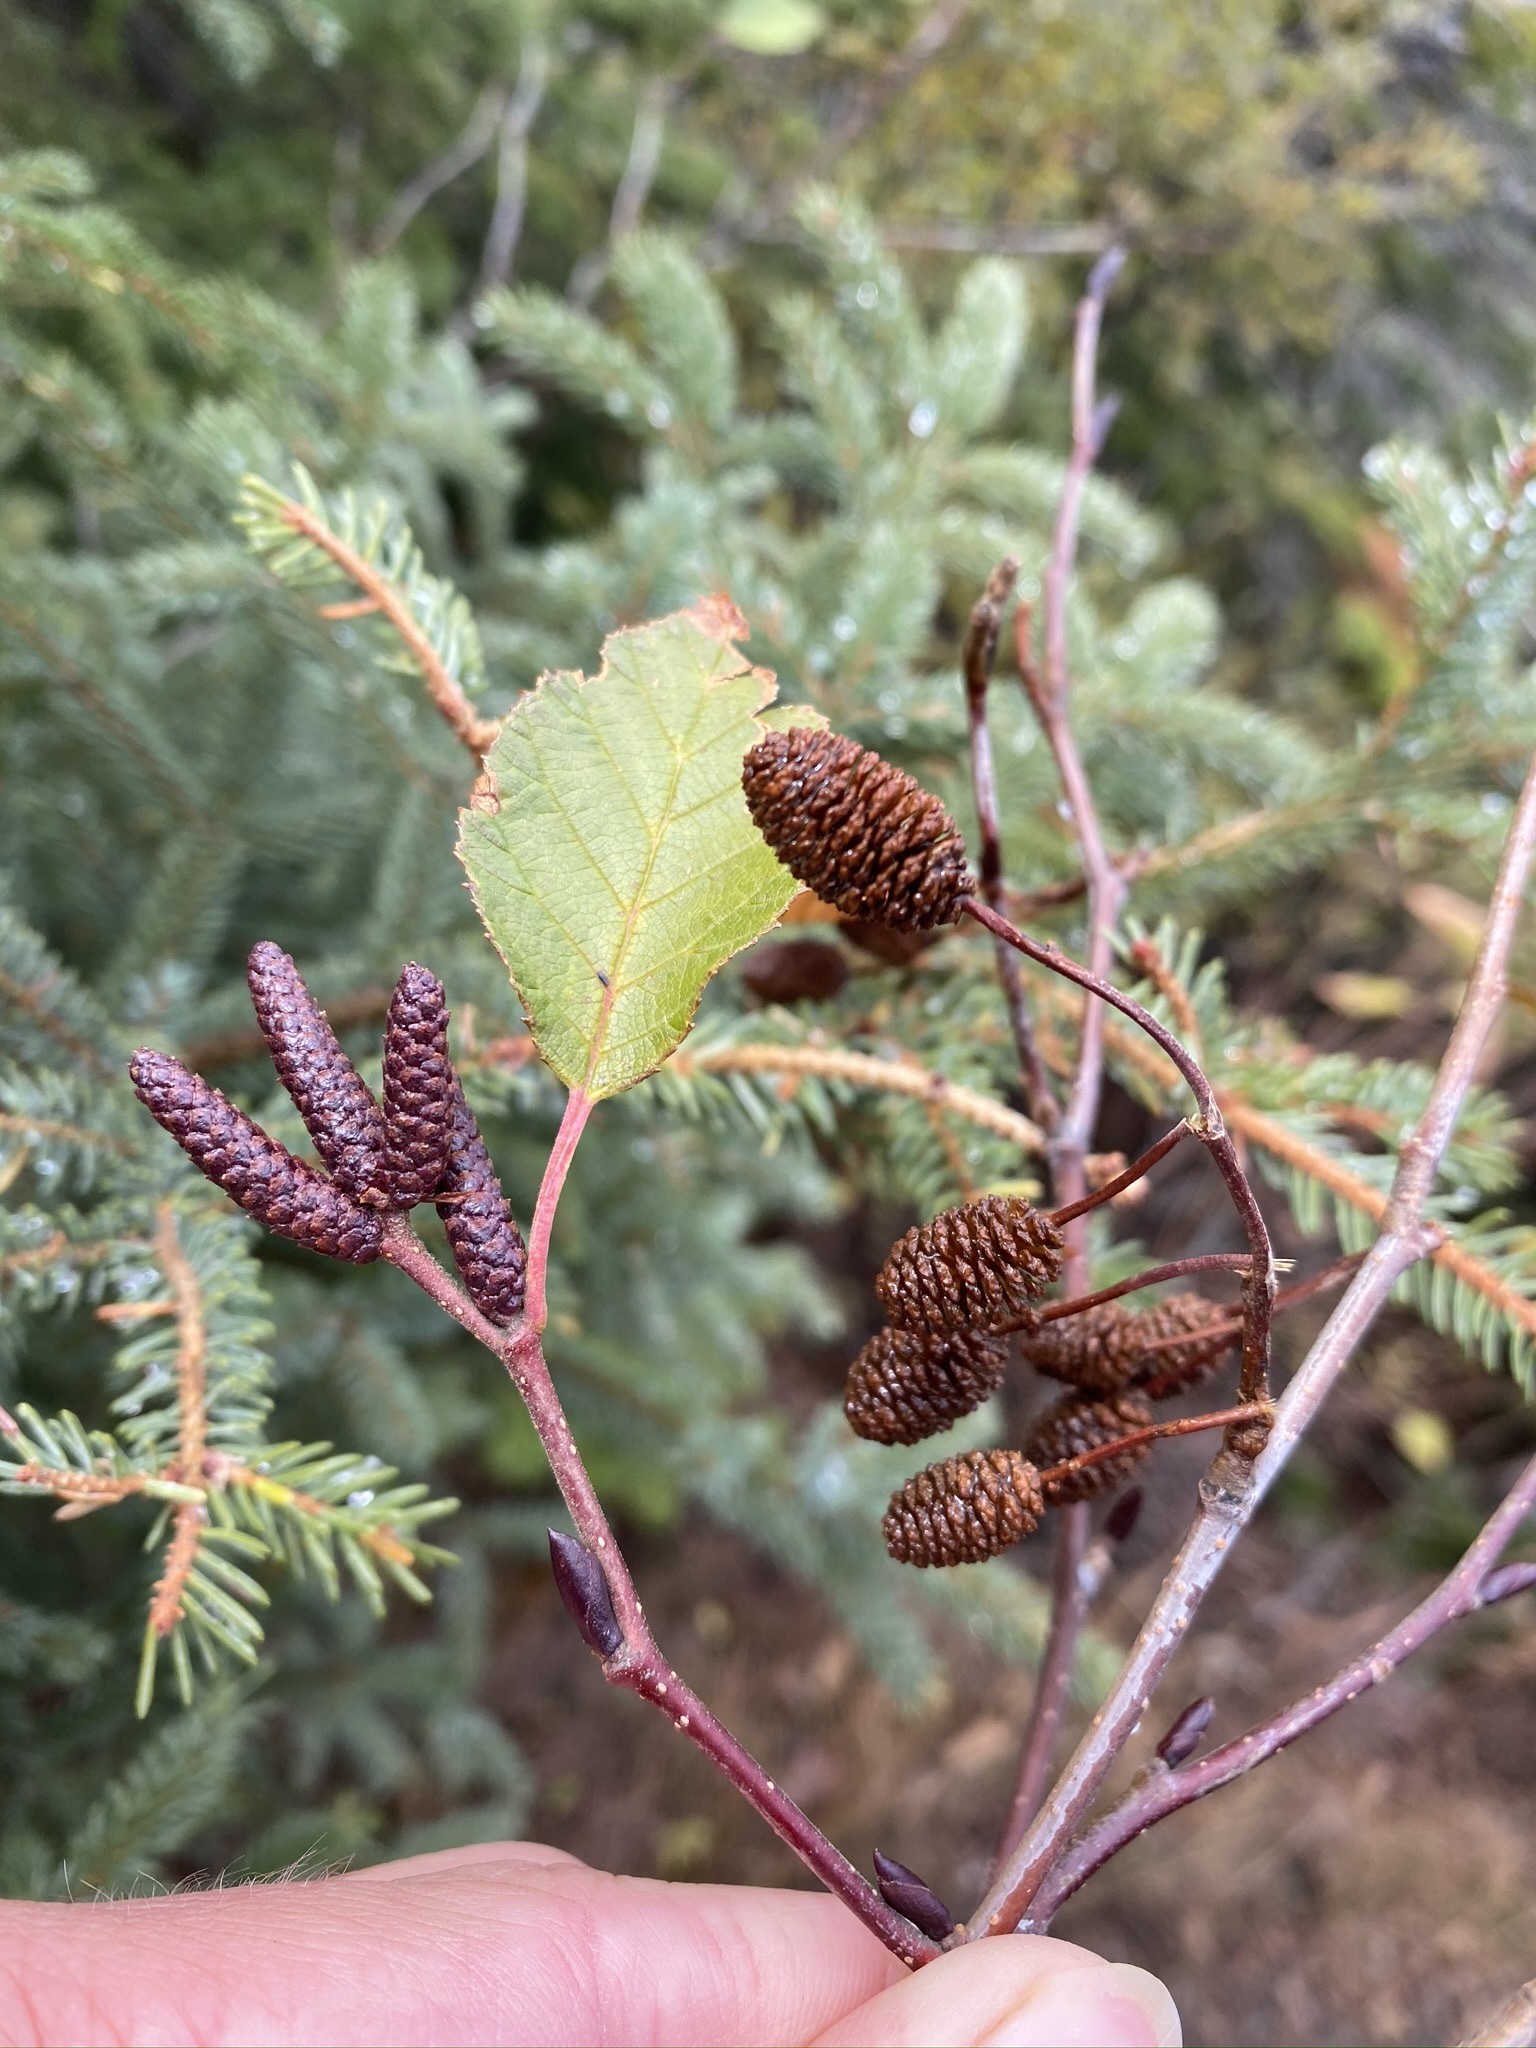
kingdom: Plantae
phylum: Tracheophyta
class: Magnoliopsida
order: Fagales
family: Betulaceae
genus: Alnus
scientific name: Alnus alnobetula
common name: Green alder
